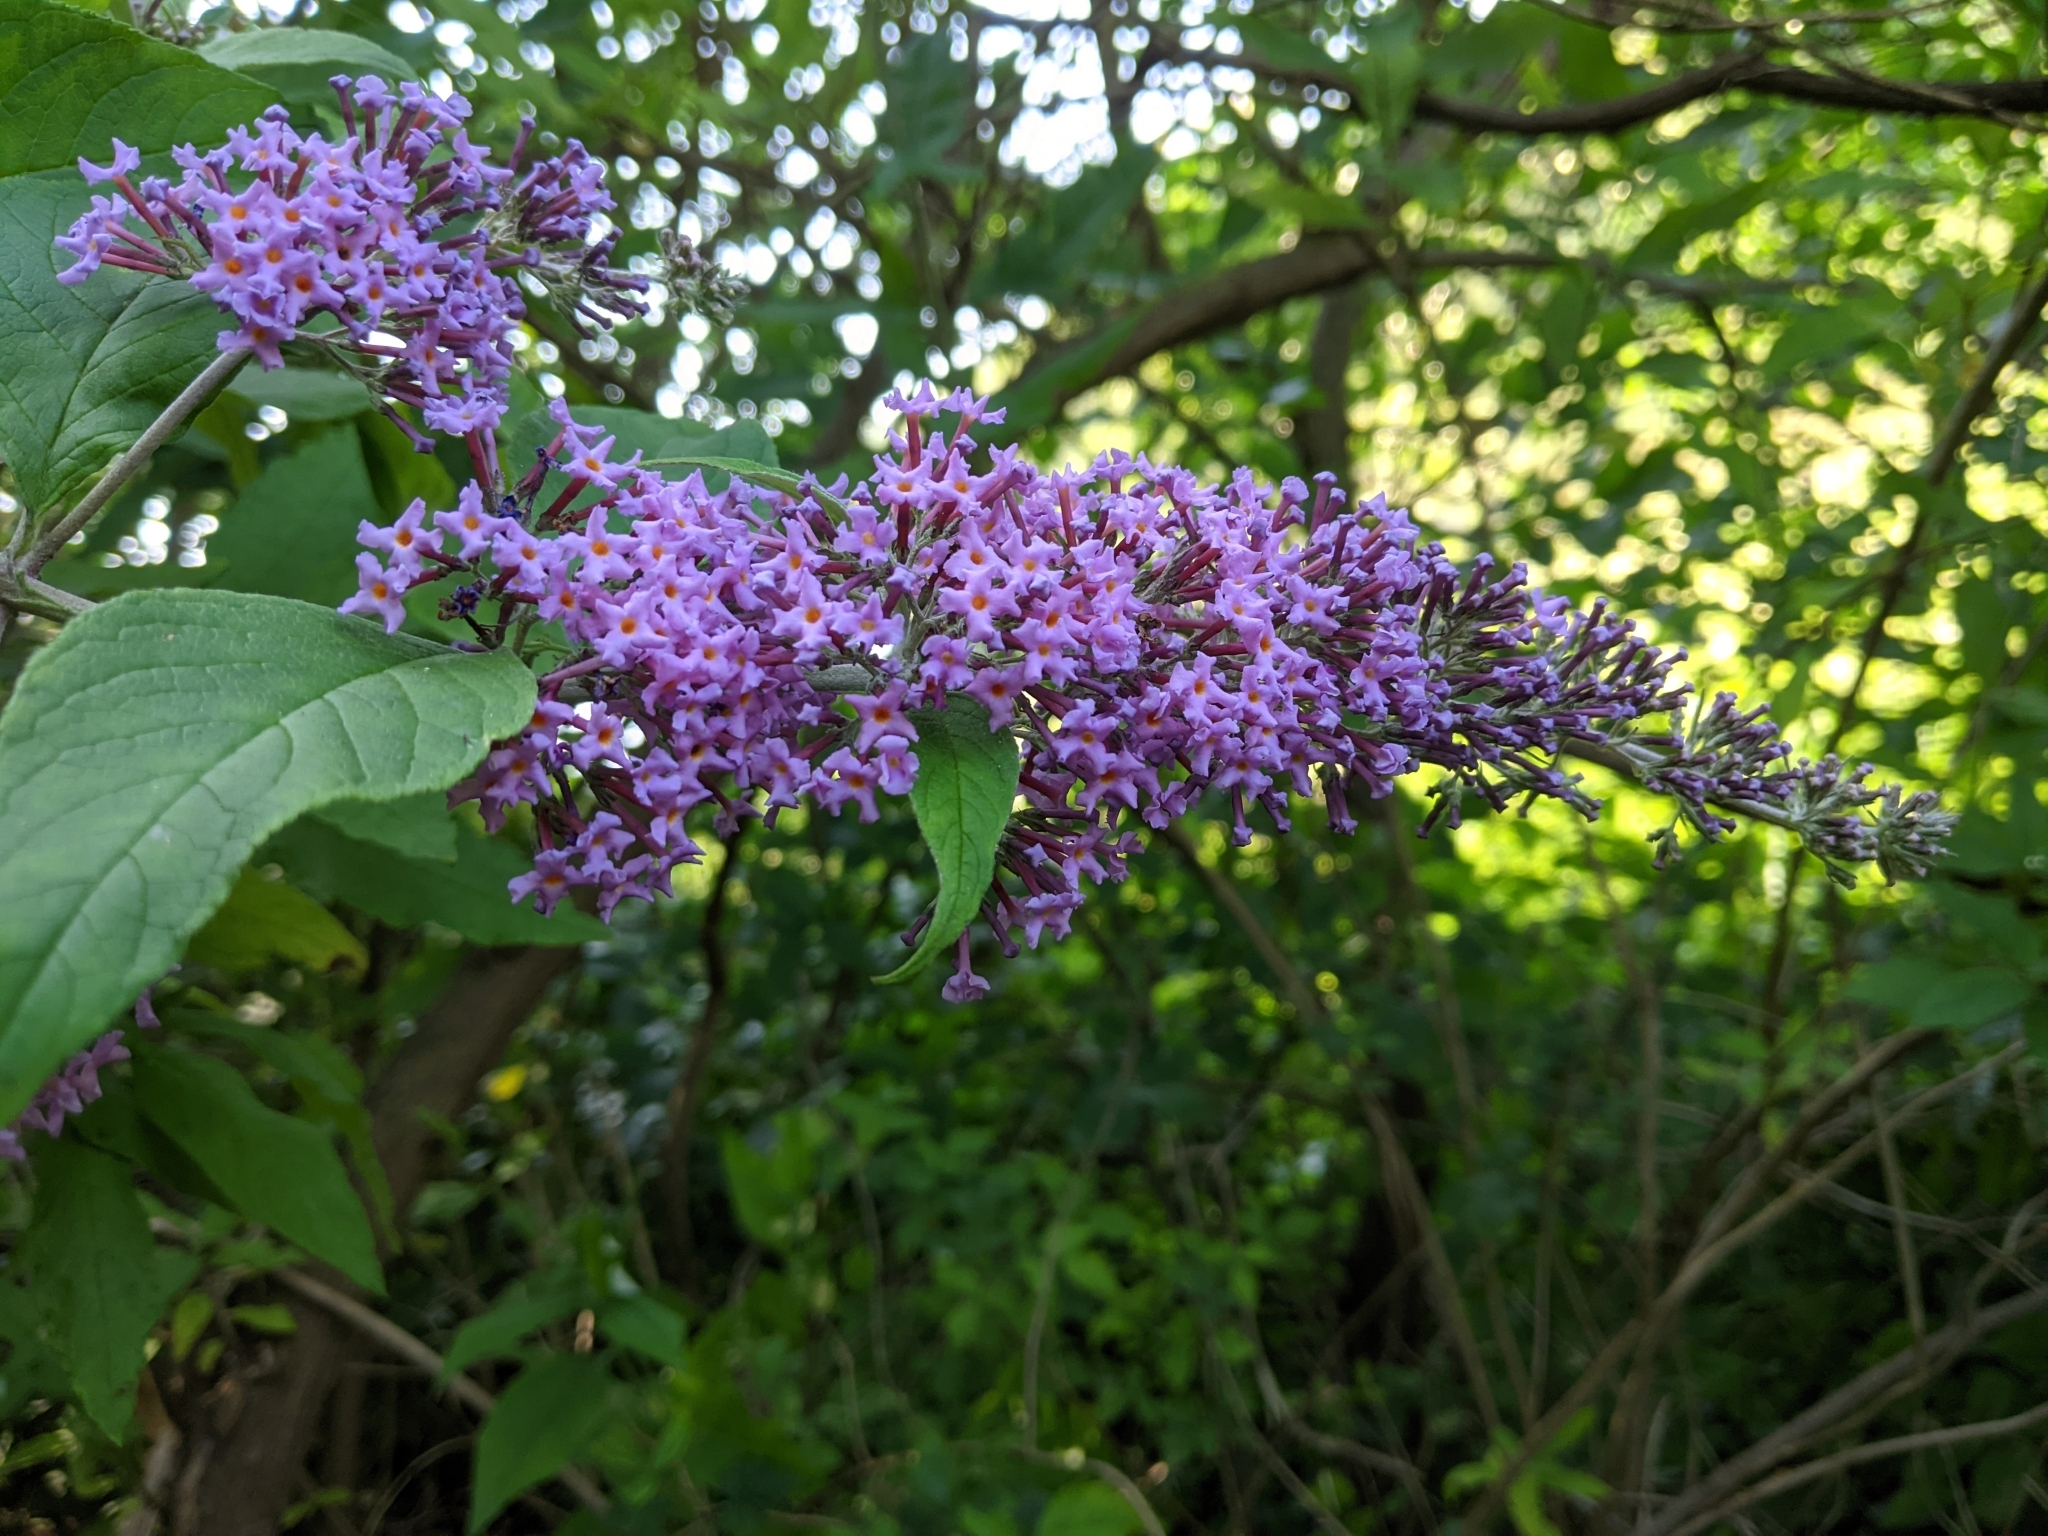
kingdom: Plantae
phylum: Tracheophyta
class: Magnoliopsida
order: Lamiales
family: Scrophulariaceae
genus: Buddleja
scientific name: Buddleja davidii
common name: Butterfly-bush
